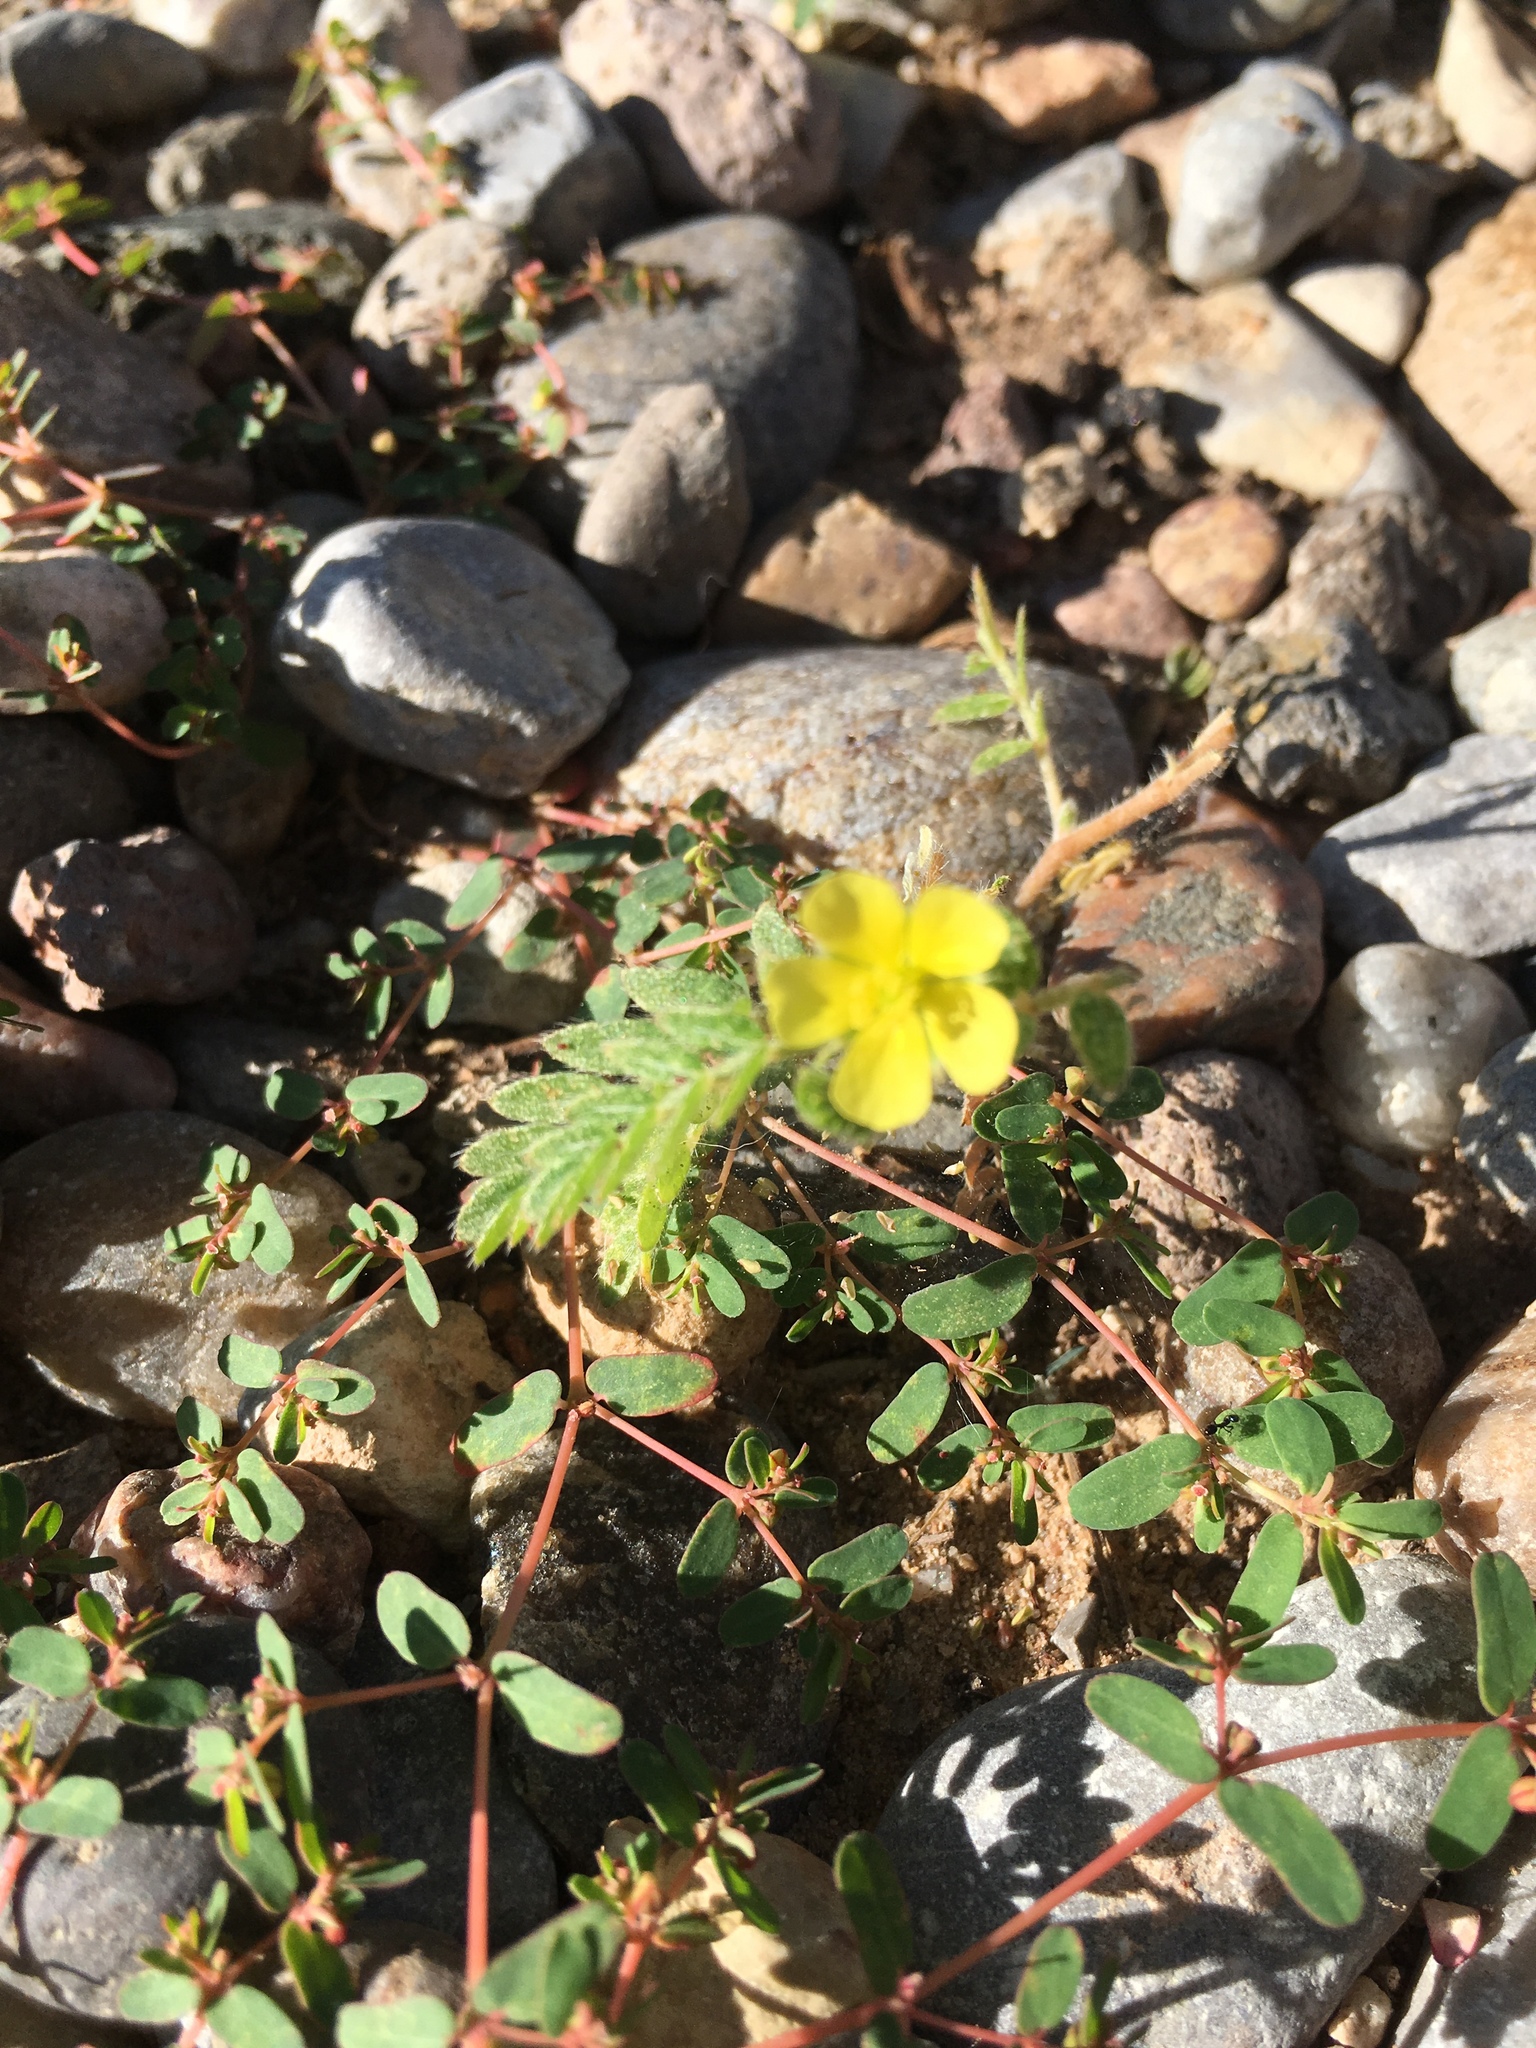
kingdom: Plantae
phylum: Tracheophyta
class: Magnoliopsida
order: Zygophyllales
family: Zygophyllaceae
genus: Tribulus
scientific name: Tribulus terrestris
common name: Puncturevine
